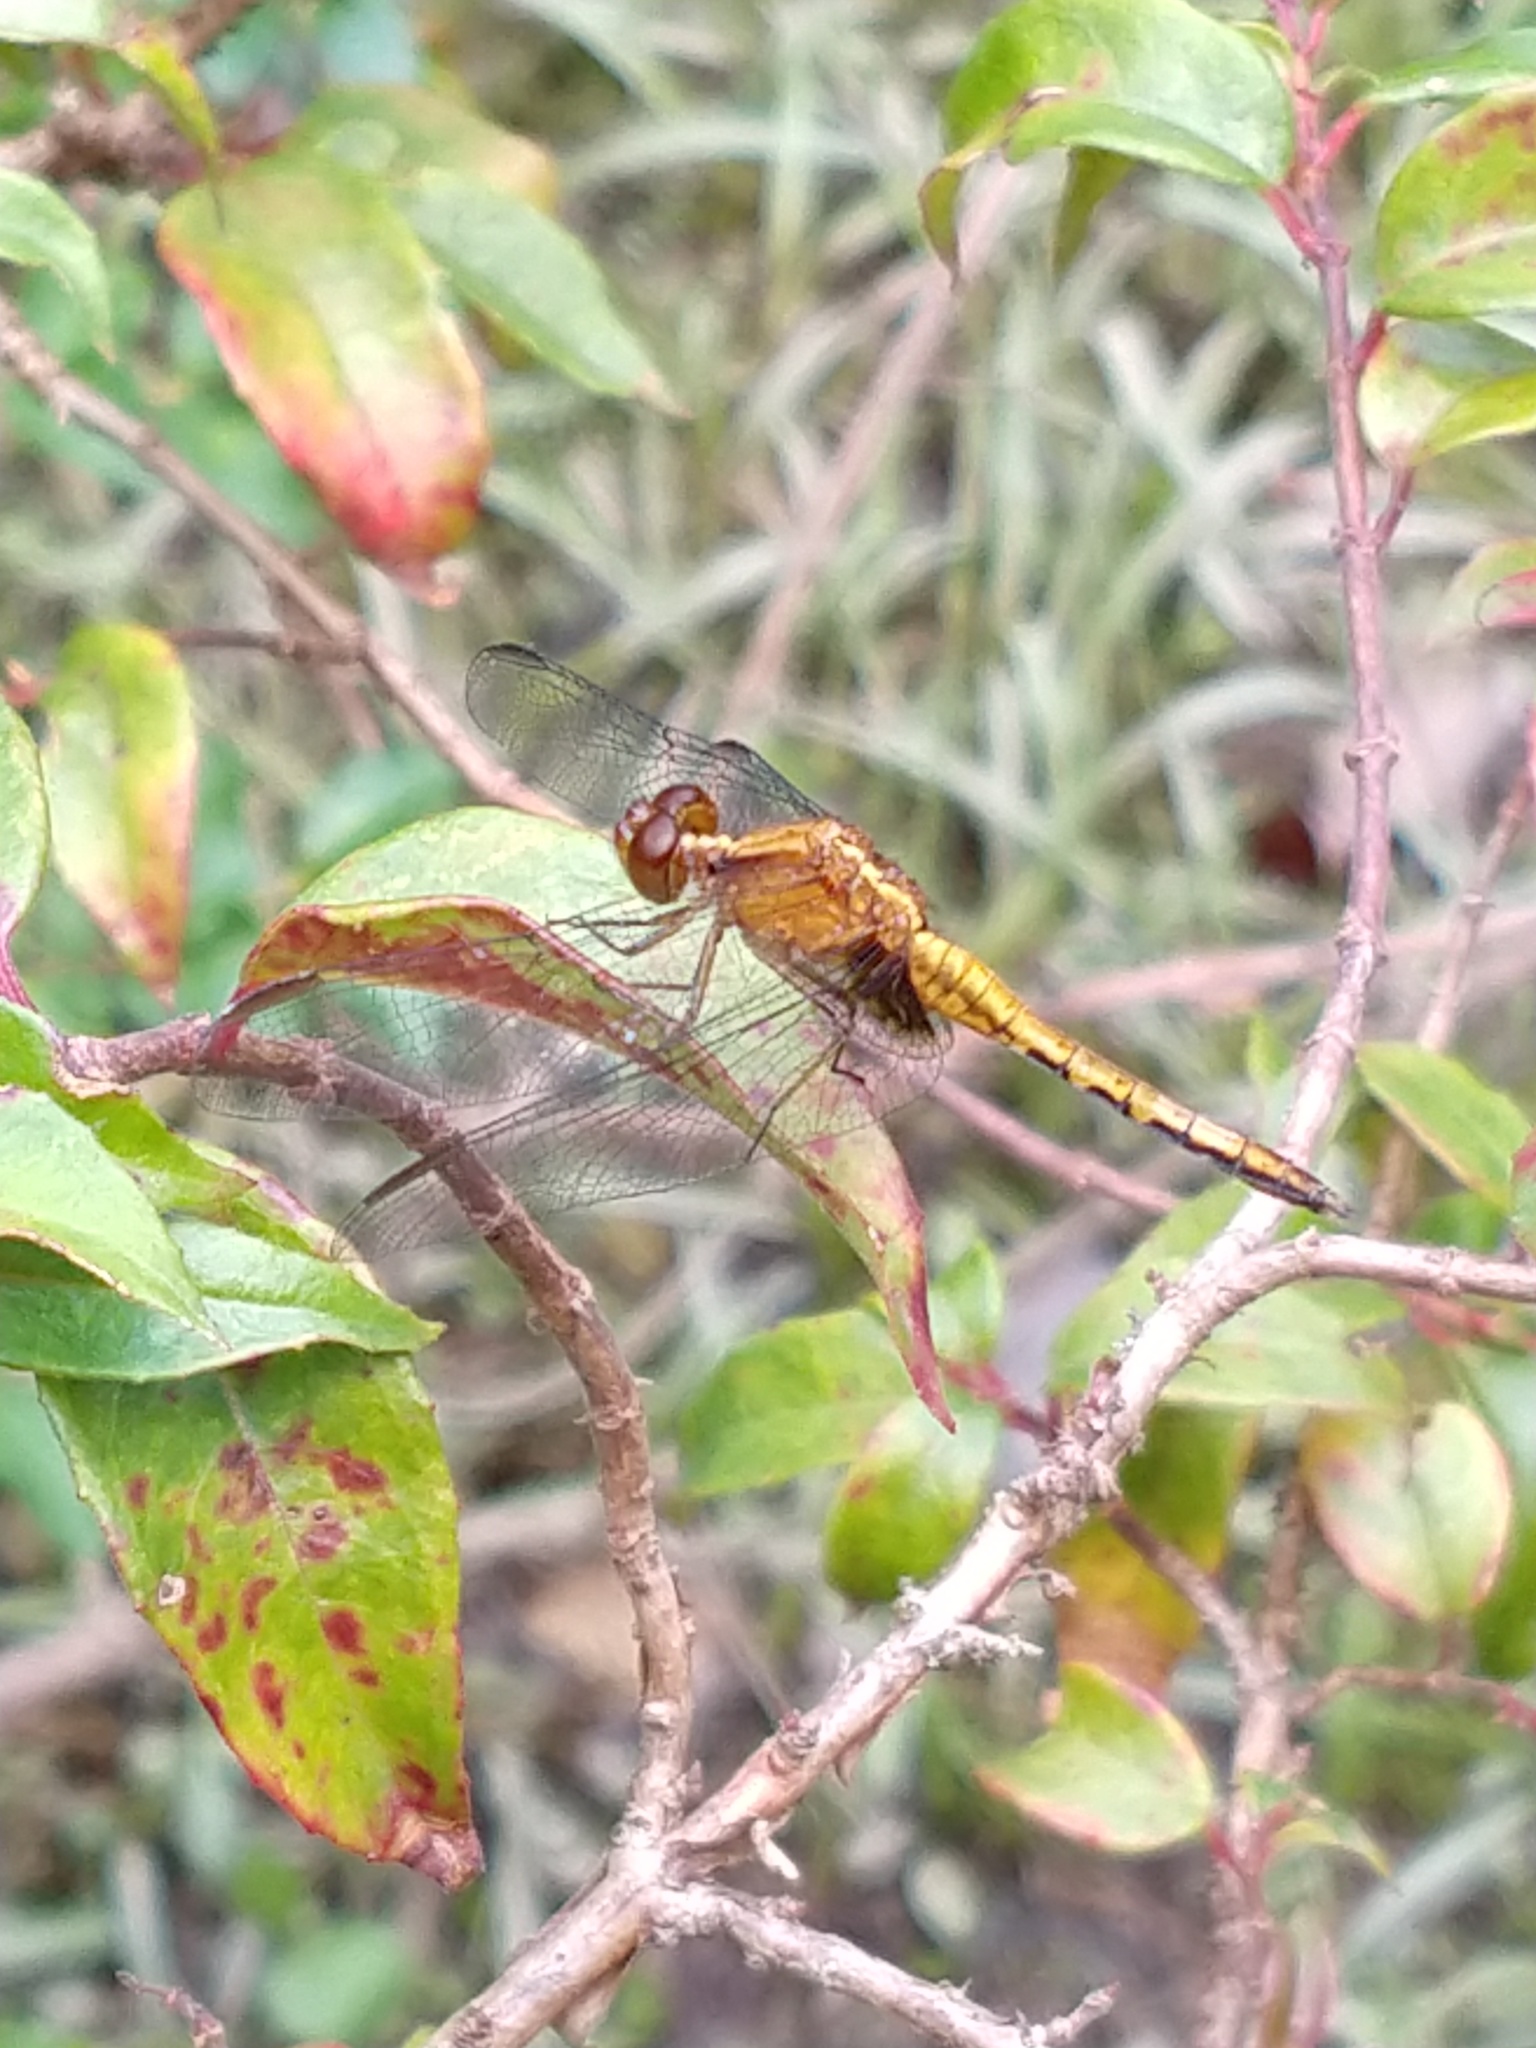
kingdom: Animalia
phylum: Arthropoda
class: Insecta
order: Odonata
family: Libellulidae
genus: Erythrodiplax
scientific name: Erythrodiplax melanorubra
